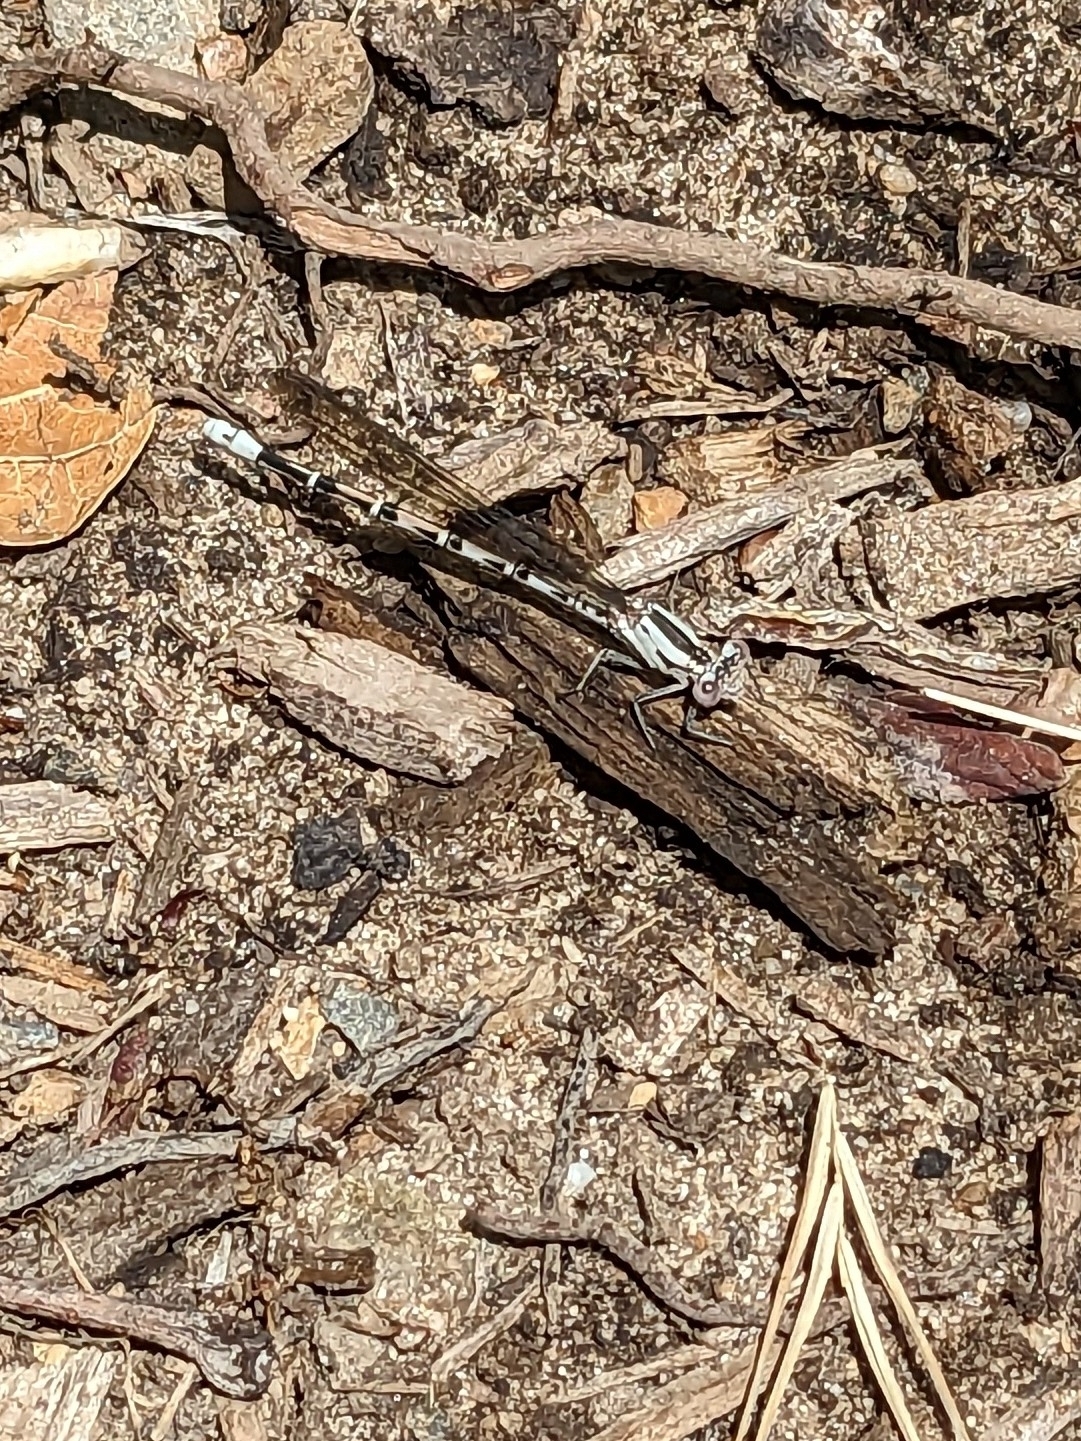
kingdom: Animalia
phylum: Arthropoda
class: Insecta
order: Odonata
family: Coenagrionidae
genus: Argia
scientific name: Argia vivida
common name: Vivid dancer
